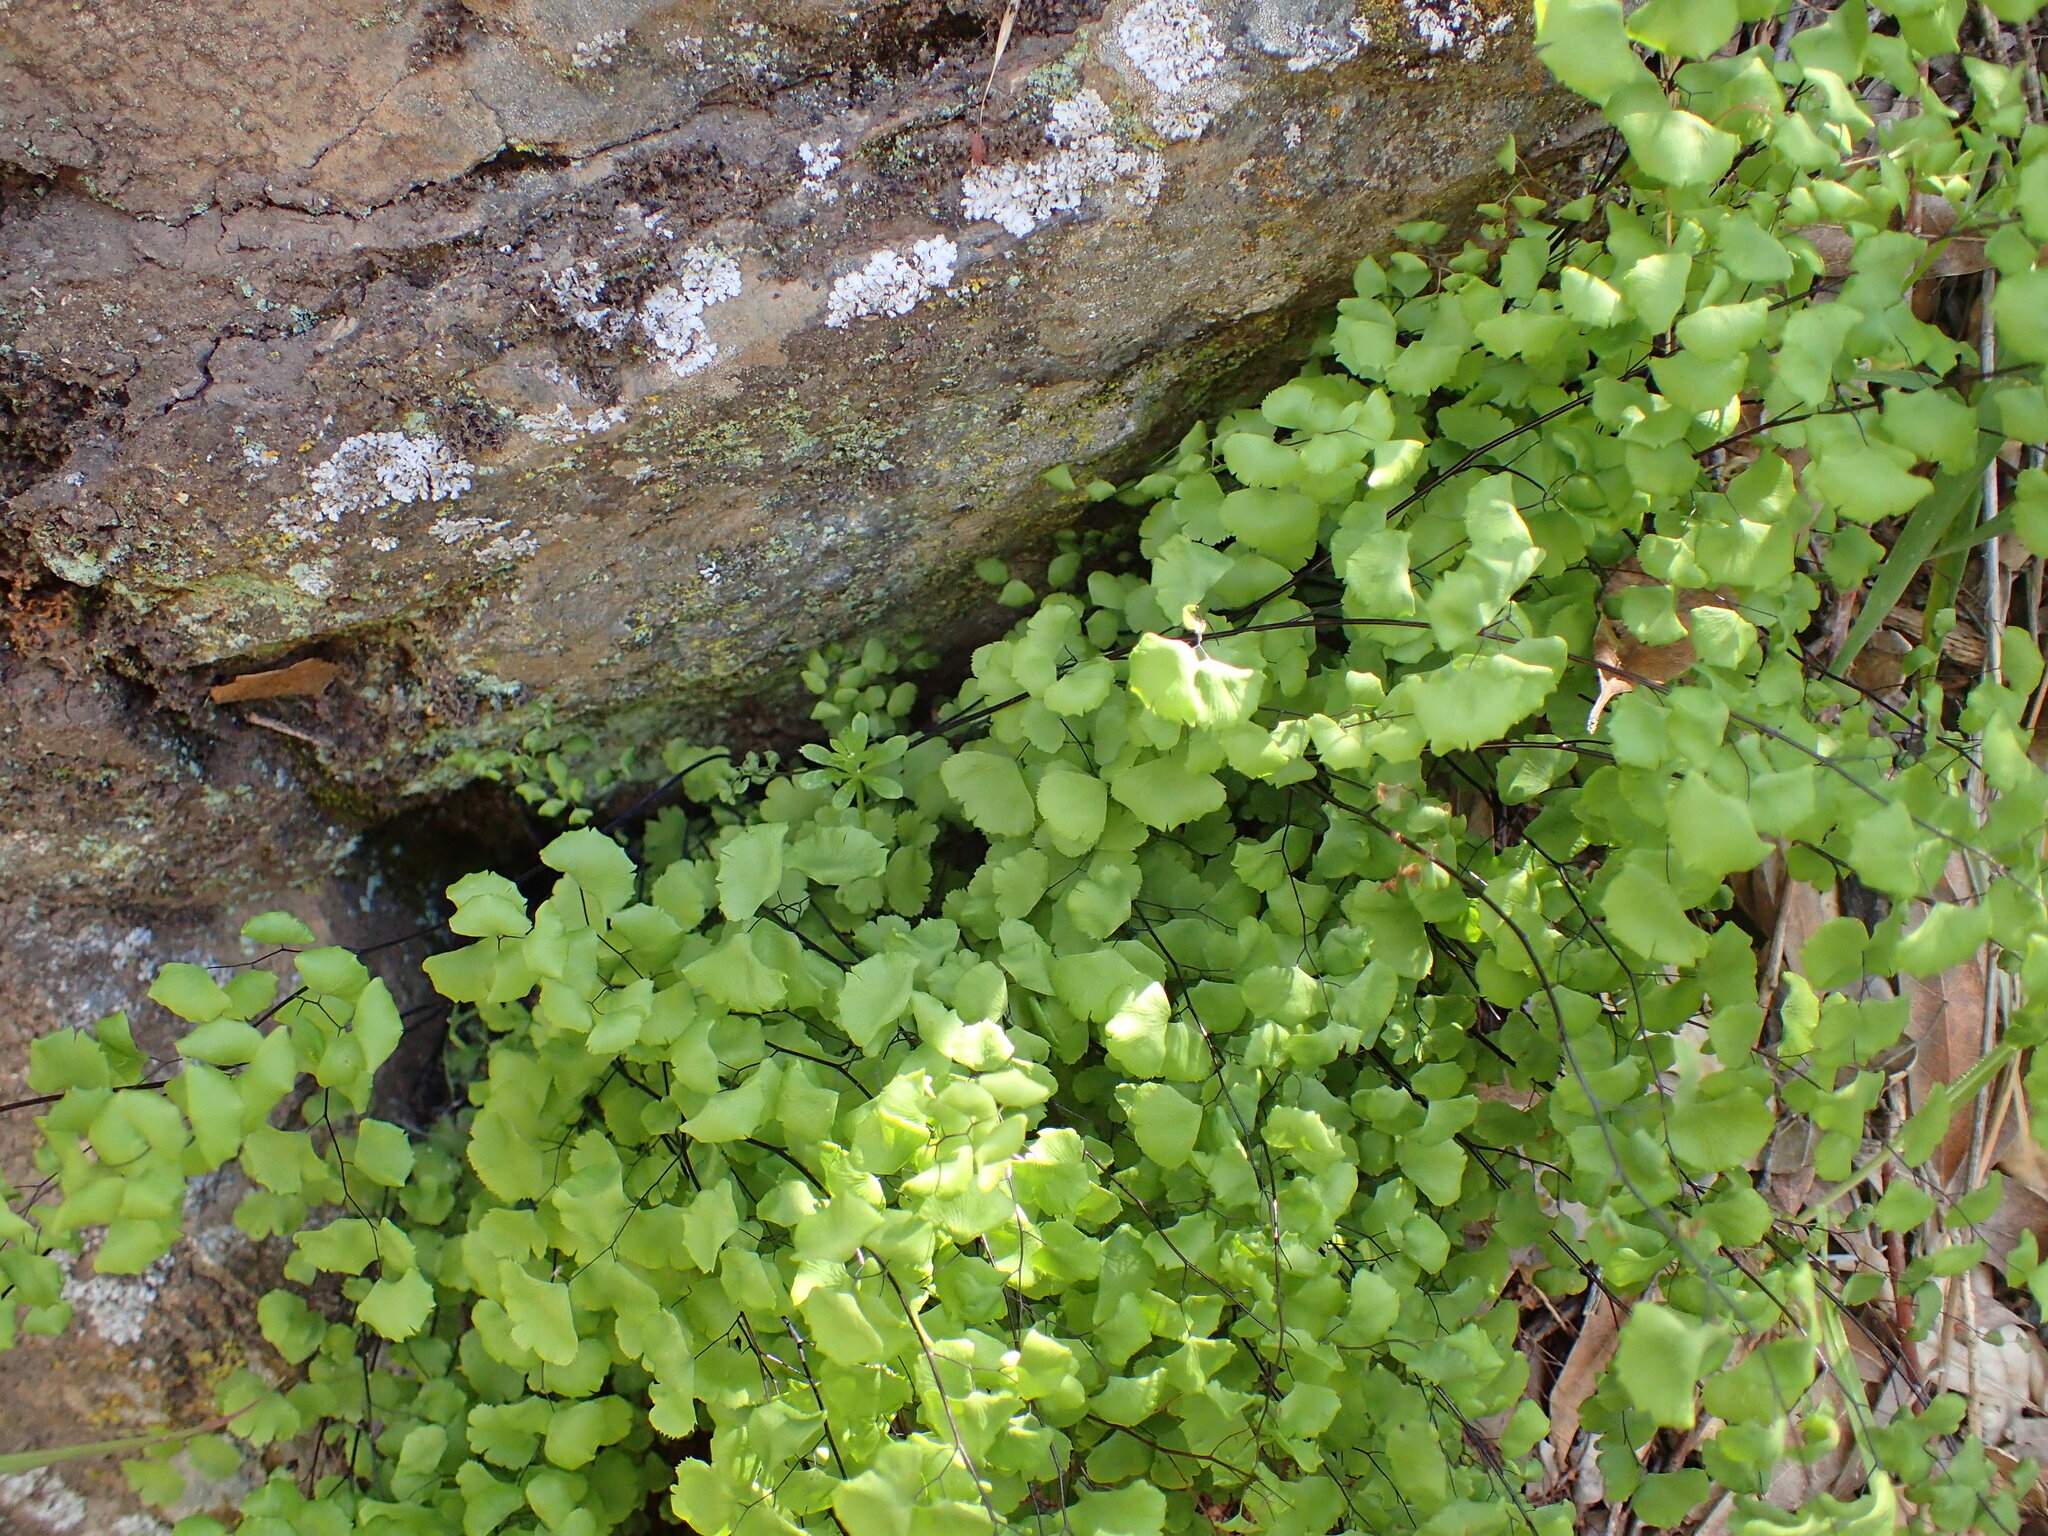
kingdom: Plantae
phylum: Tracheophyta
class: Polypodiopsida
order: Polypodiales
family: Pteridaceae
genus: Adiantum
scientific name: Adiantum jordanii
